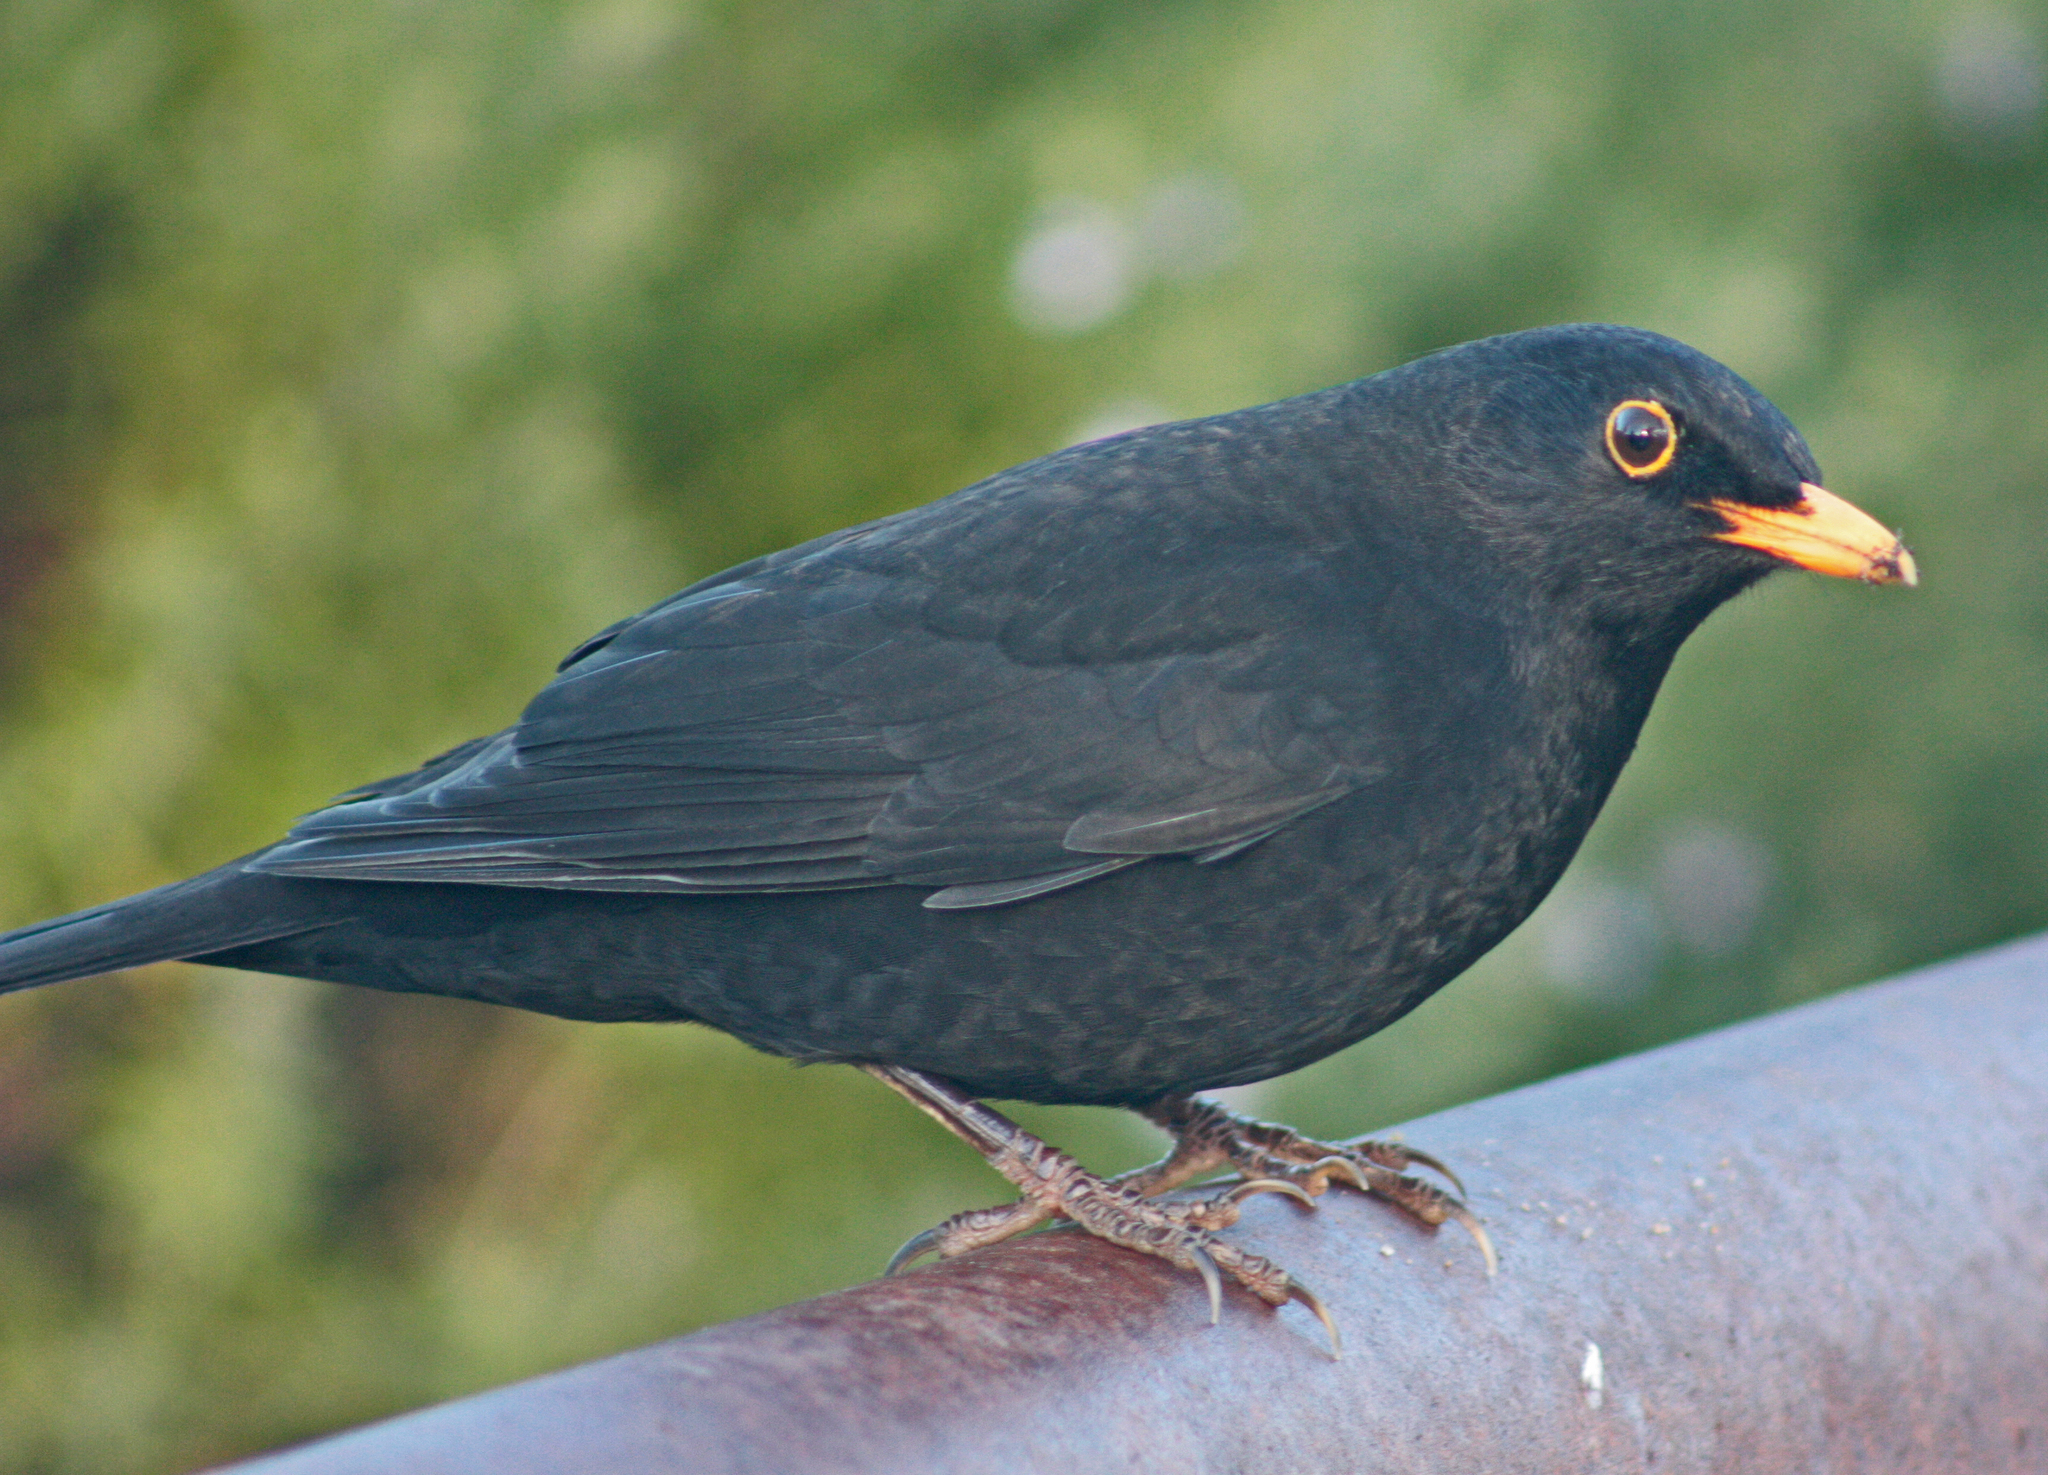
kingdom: Animalia
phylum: Chordata
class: Aves
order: Passeriformes
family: Turdidae
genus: Turdus
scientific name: Turdus merula
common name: Common blackbird
